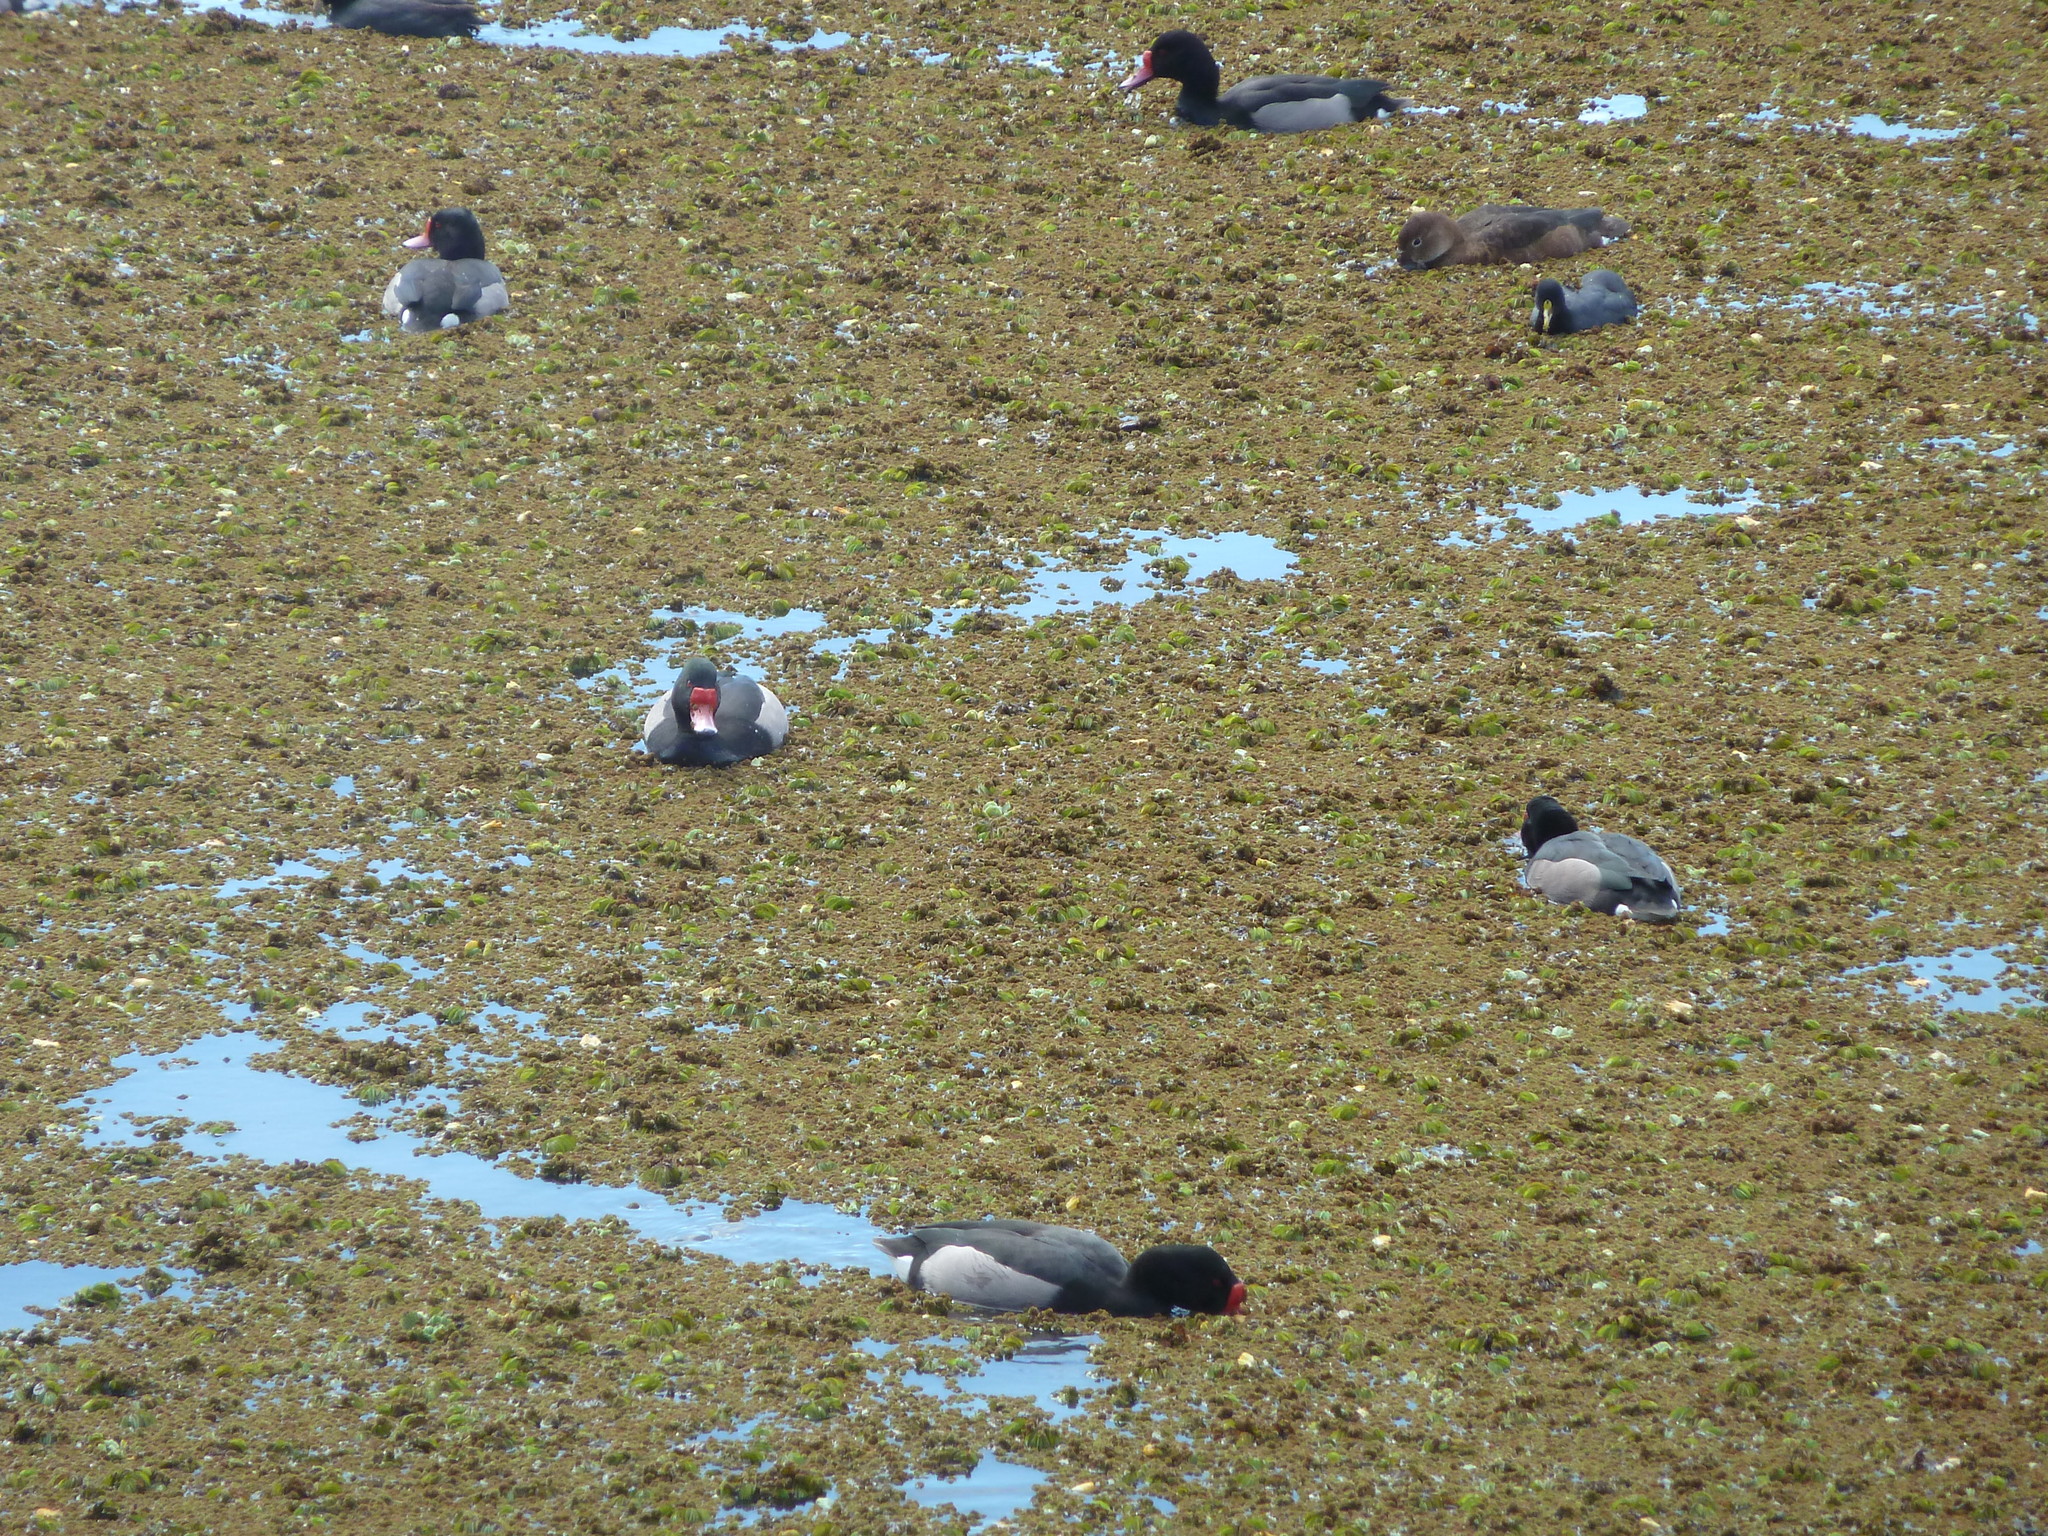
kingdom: Animalia
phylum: Chordata
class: Aves
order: Anseriformes
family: Anatidae
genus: Netta
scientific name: Netta peposaca
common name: Rosy-billed pochard
